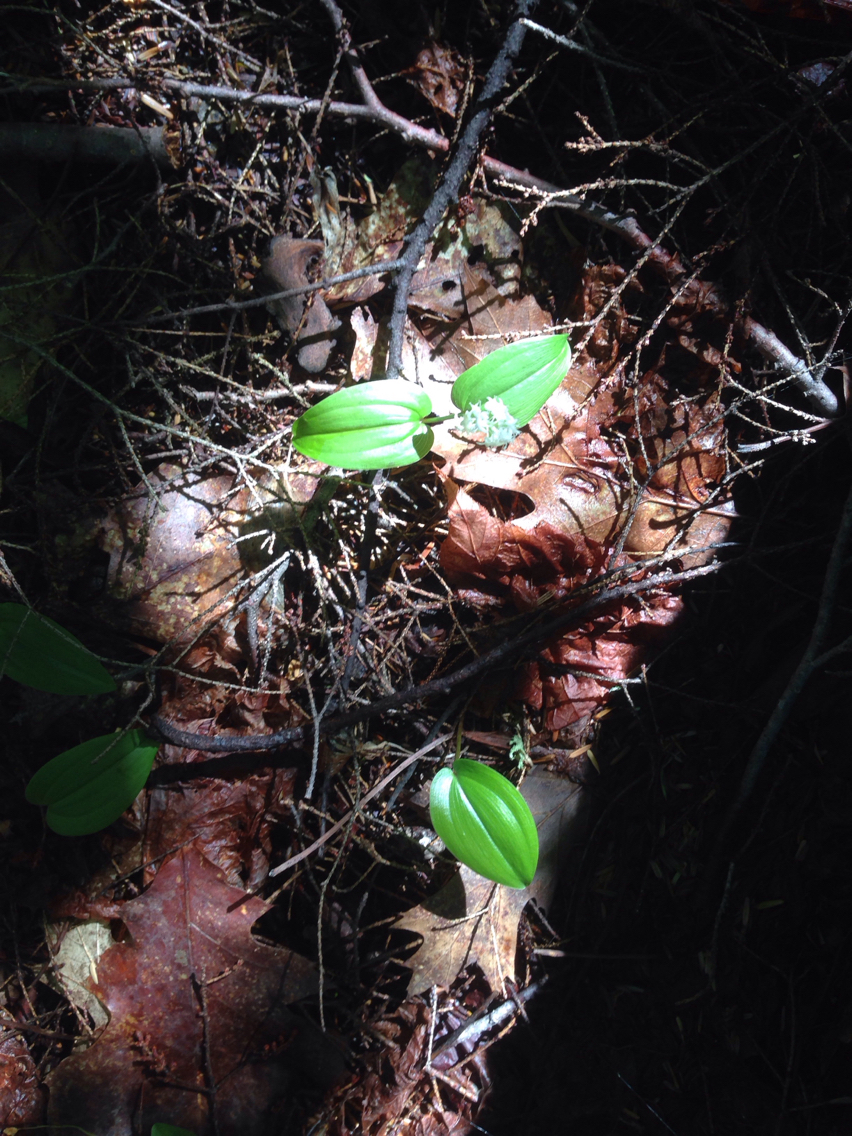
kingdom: Plantae
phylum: Tracheophyta
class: Liliopsida
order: Asparagales
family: Asparagaceae
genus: Maianthemum
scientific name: Maianthemum canadense
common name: False lily-of-the-valley
